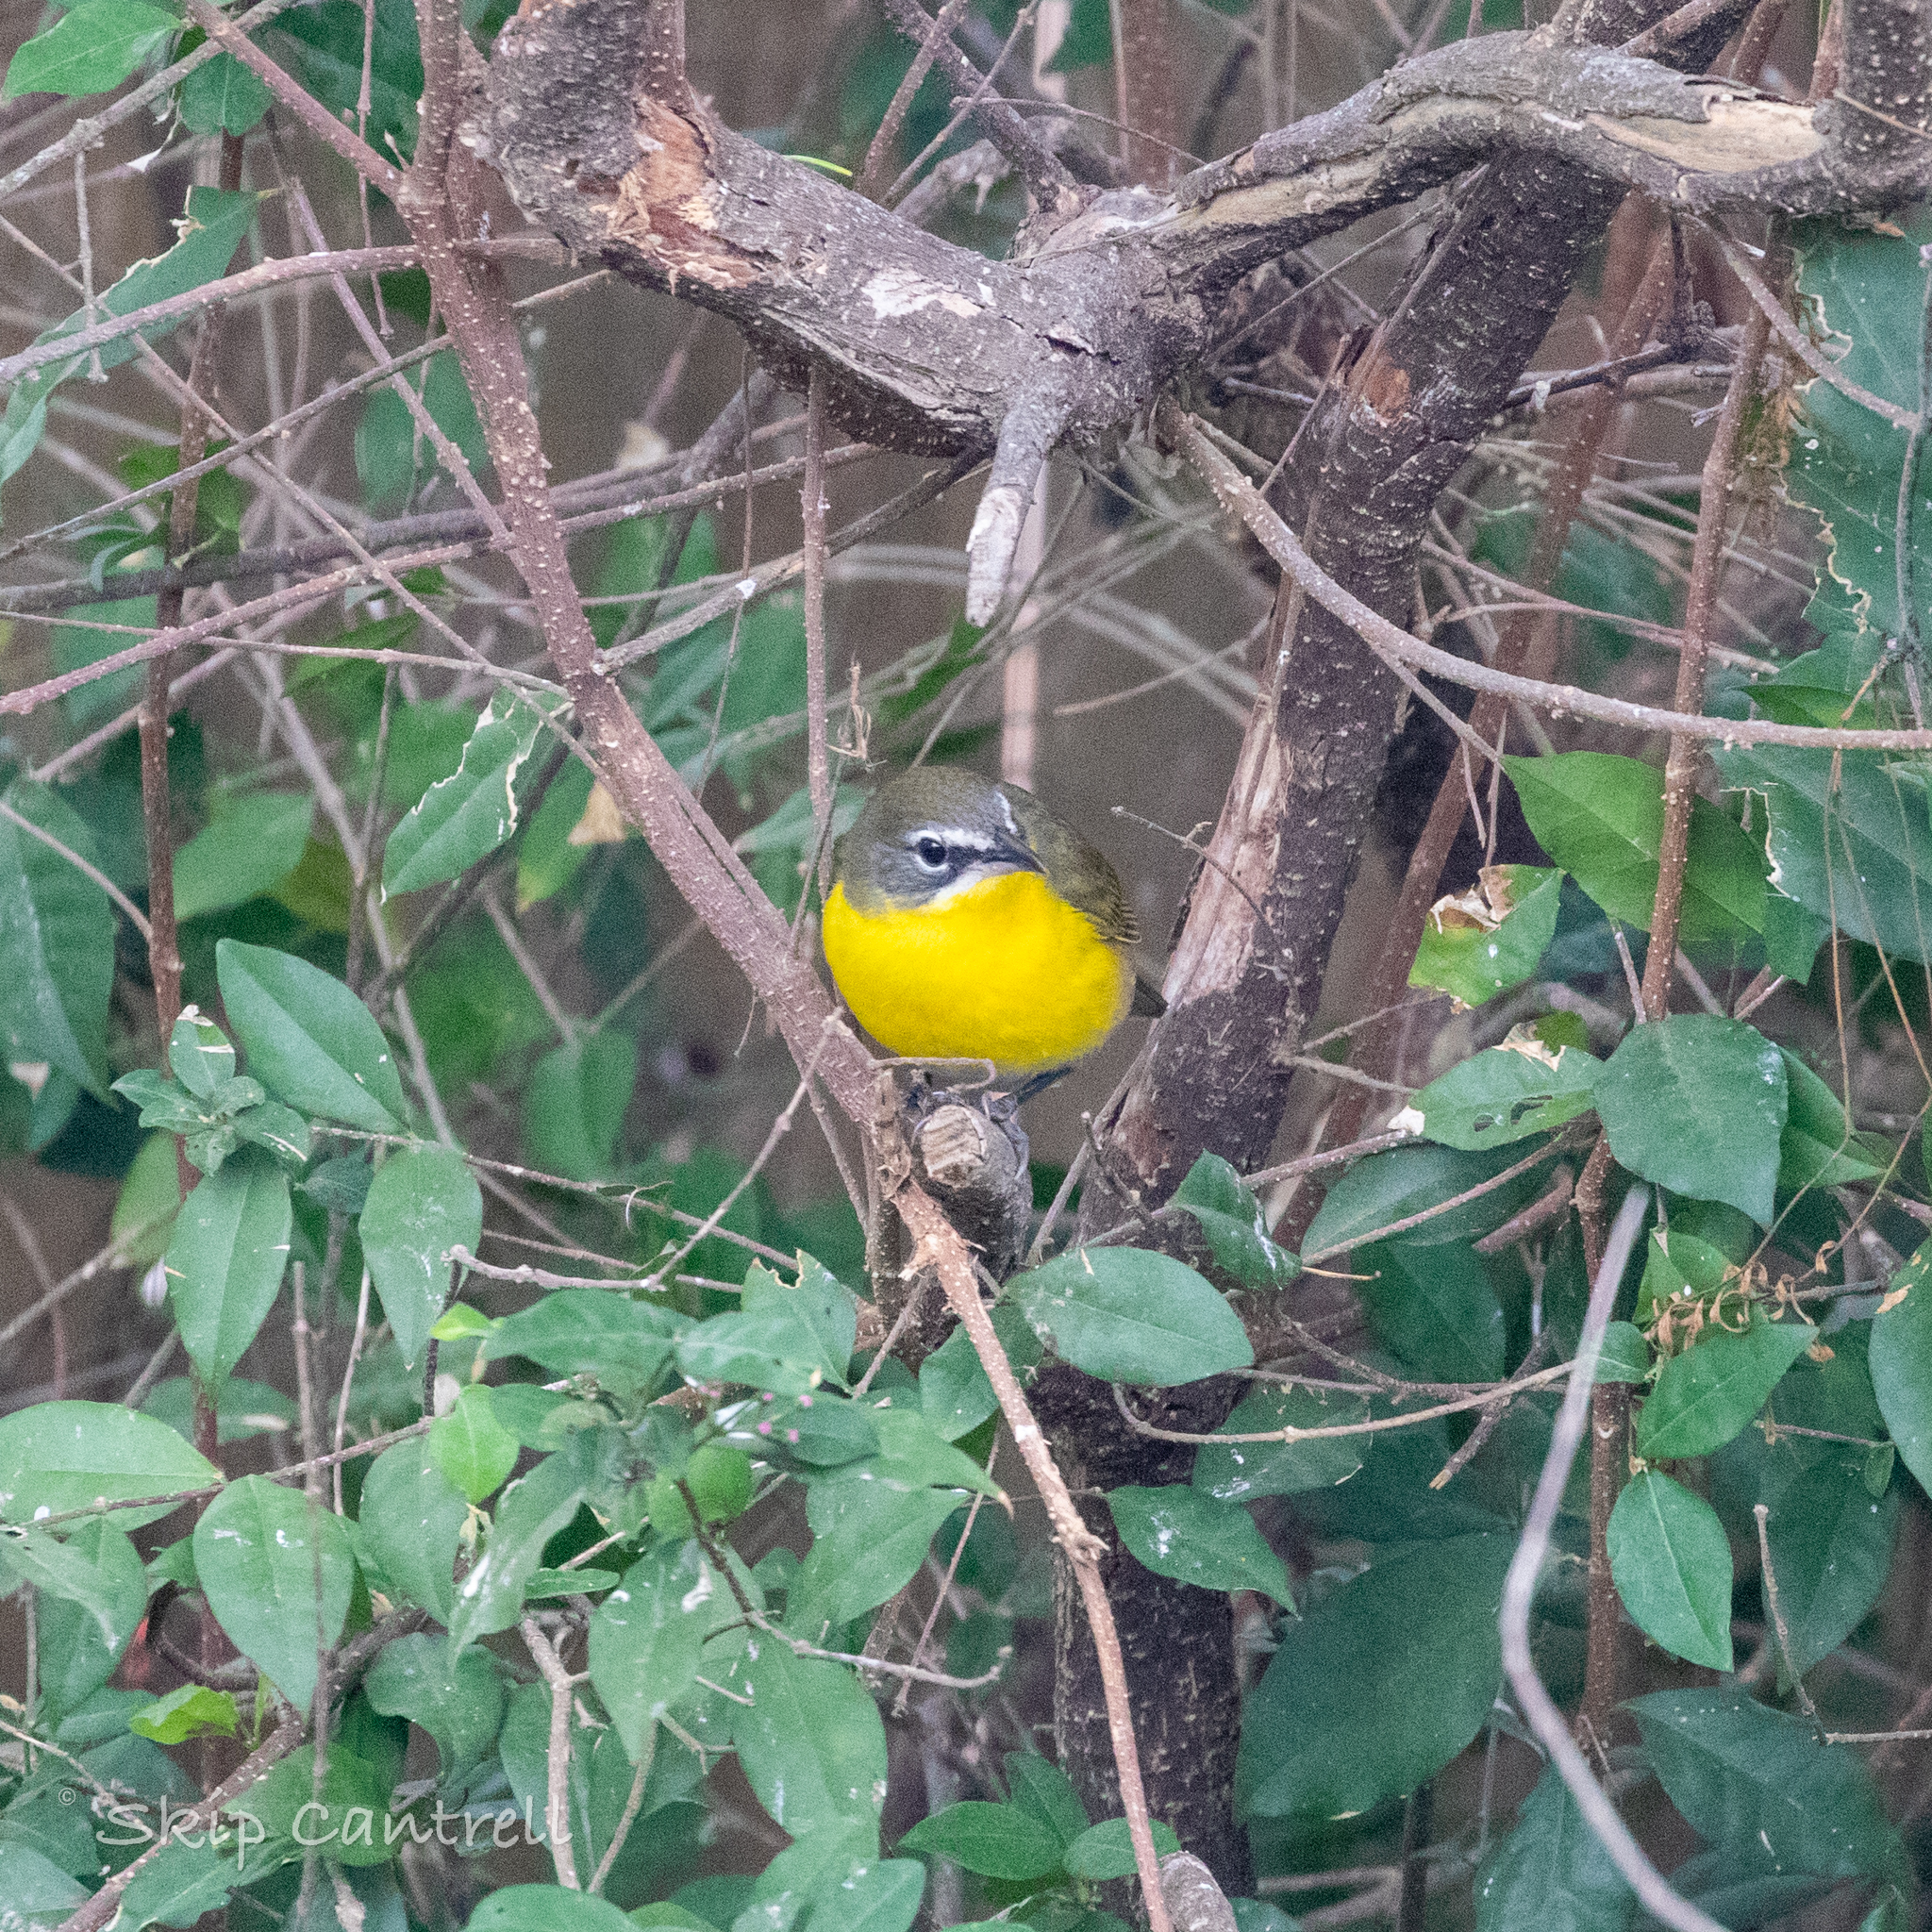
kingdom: Animalia
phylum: Chordata
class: Aves
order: Passeriformes
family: Parulidae
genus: Icteria
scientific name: Icteria virens
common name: Yellow-breasted chat
